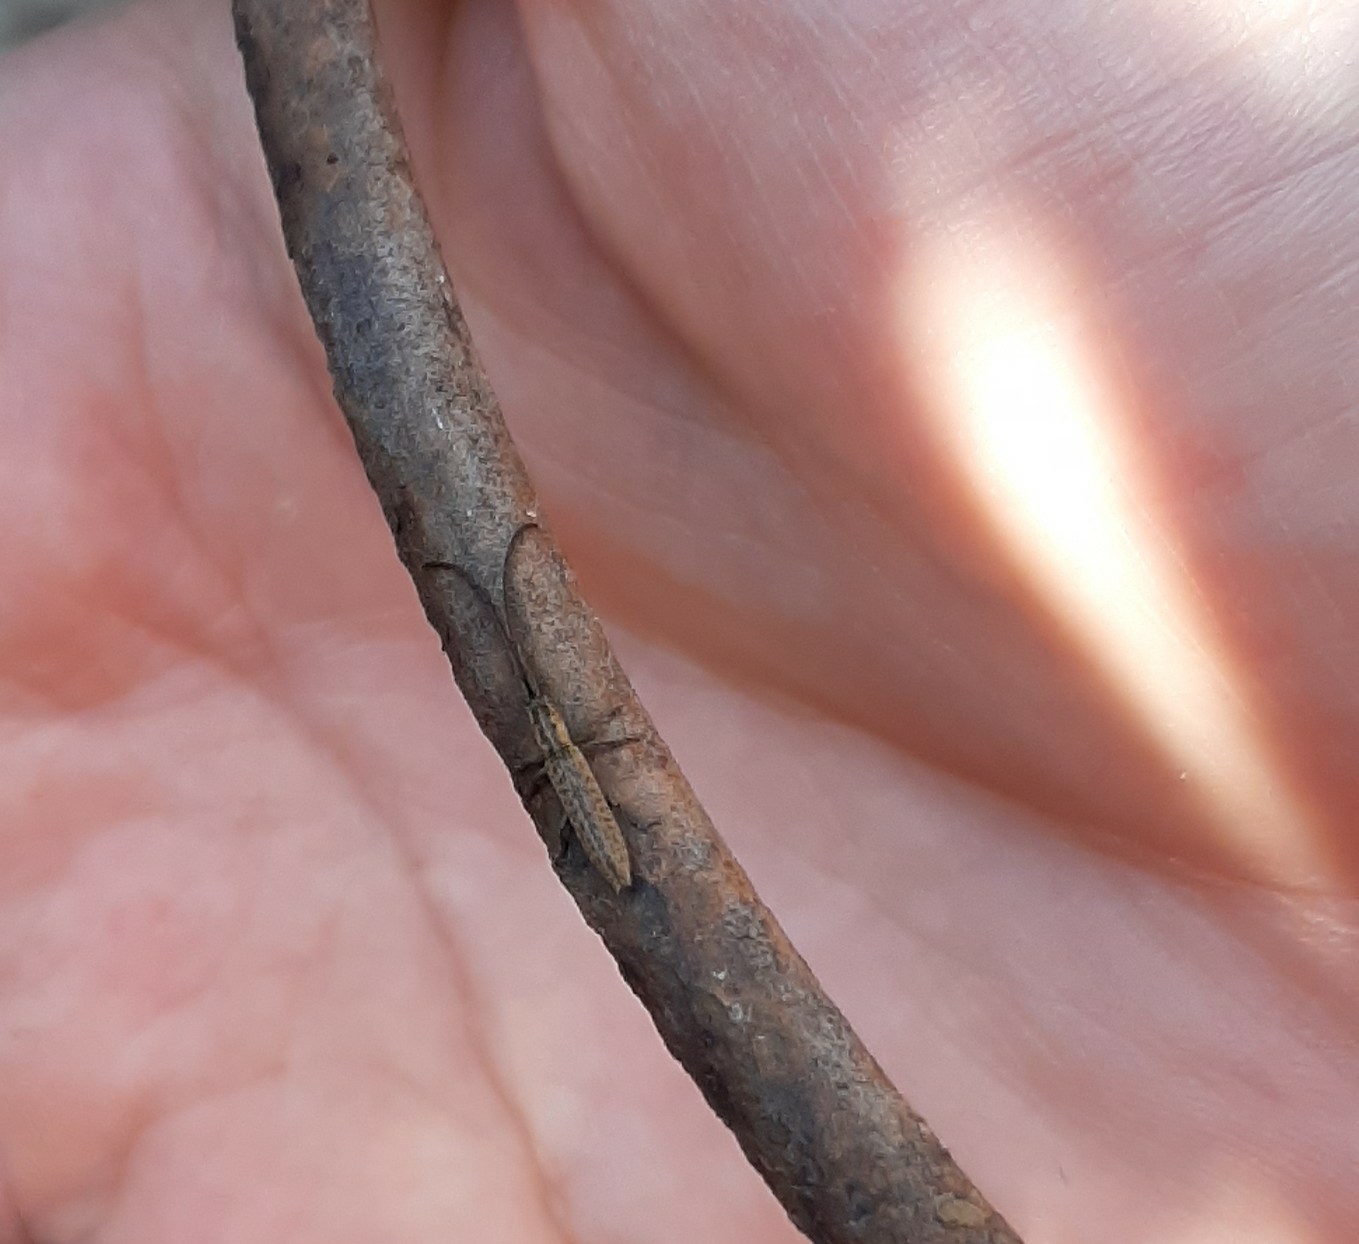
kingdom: Animalia
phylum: Arthropoda
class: Insecta
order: Coleoptera
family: Cerambycidae
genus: Dorcasta
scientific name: Dorcasta implicata
